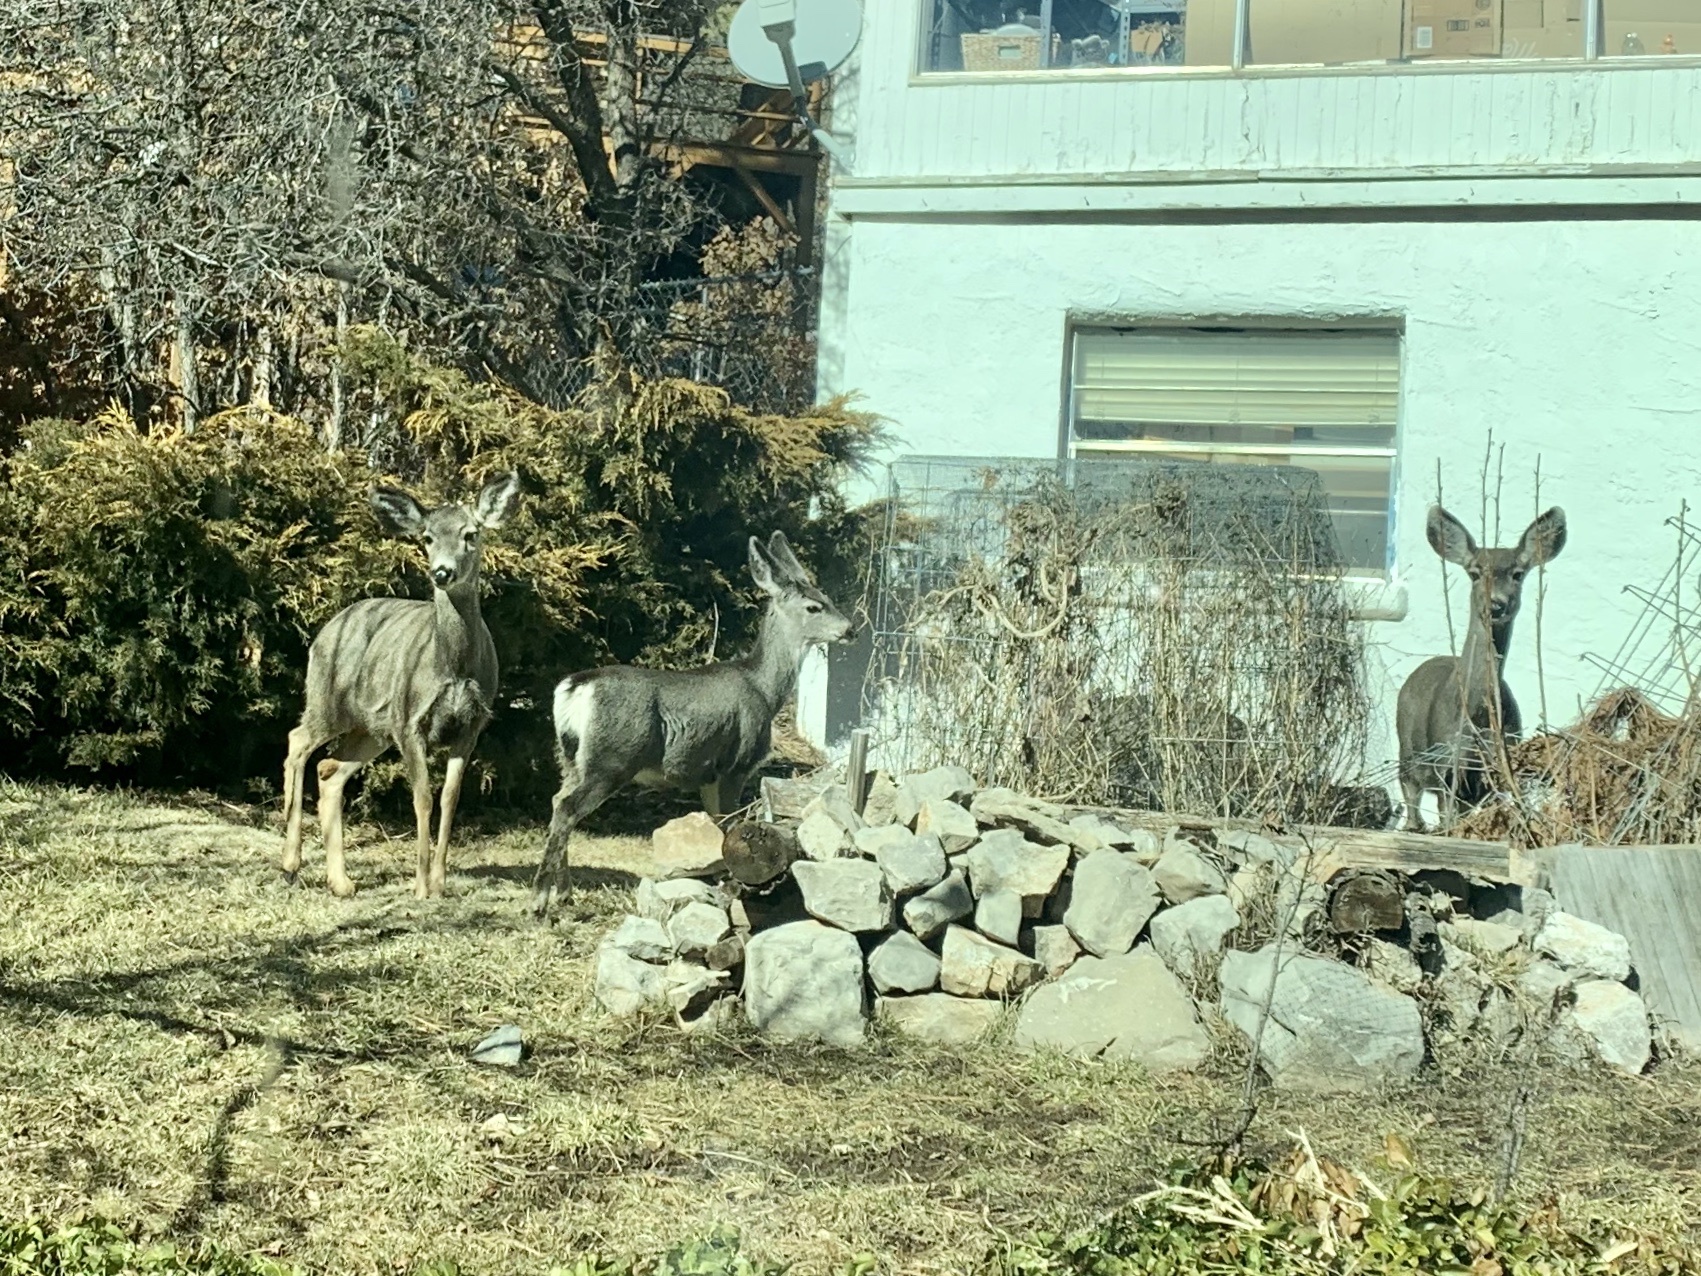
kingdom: Animalia
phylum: Chordata
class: Mammalia
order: Artiodactyla
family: Cervidae
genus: Odocoileus
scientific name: Odocoileus hemionus
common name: Mule deer
